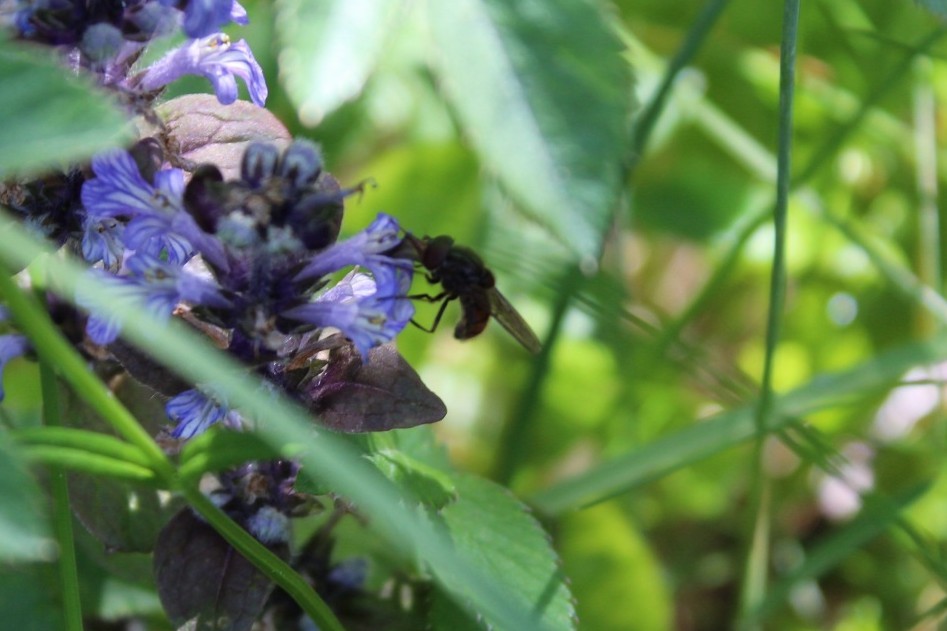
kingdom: Animalia
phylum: Arthropoda
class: Insecta
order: Diptera
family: Syrphidae
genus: Rhingia
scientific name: Rhingia campestris
